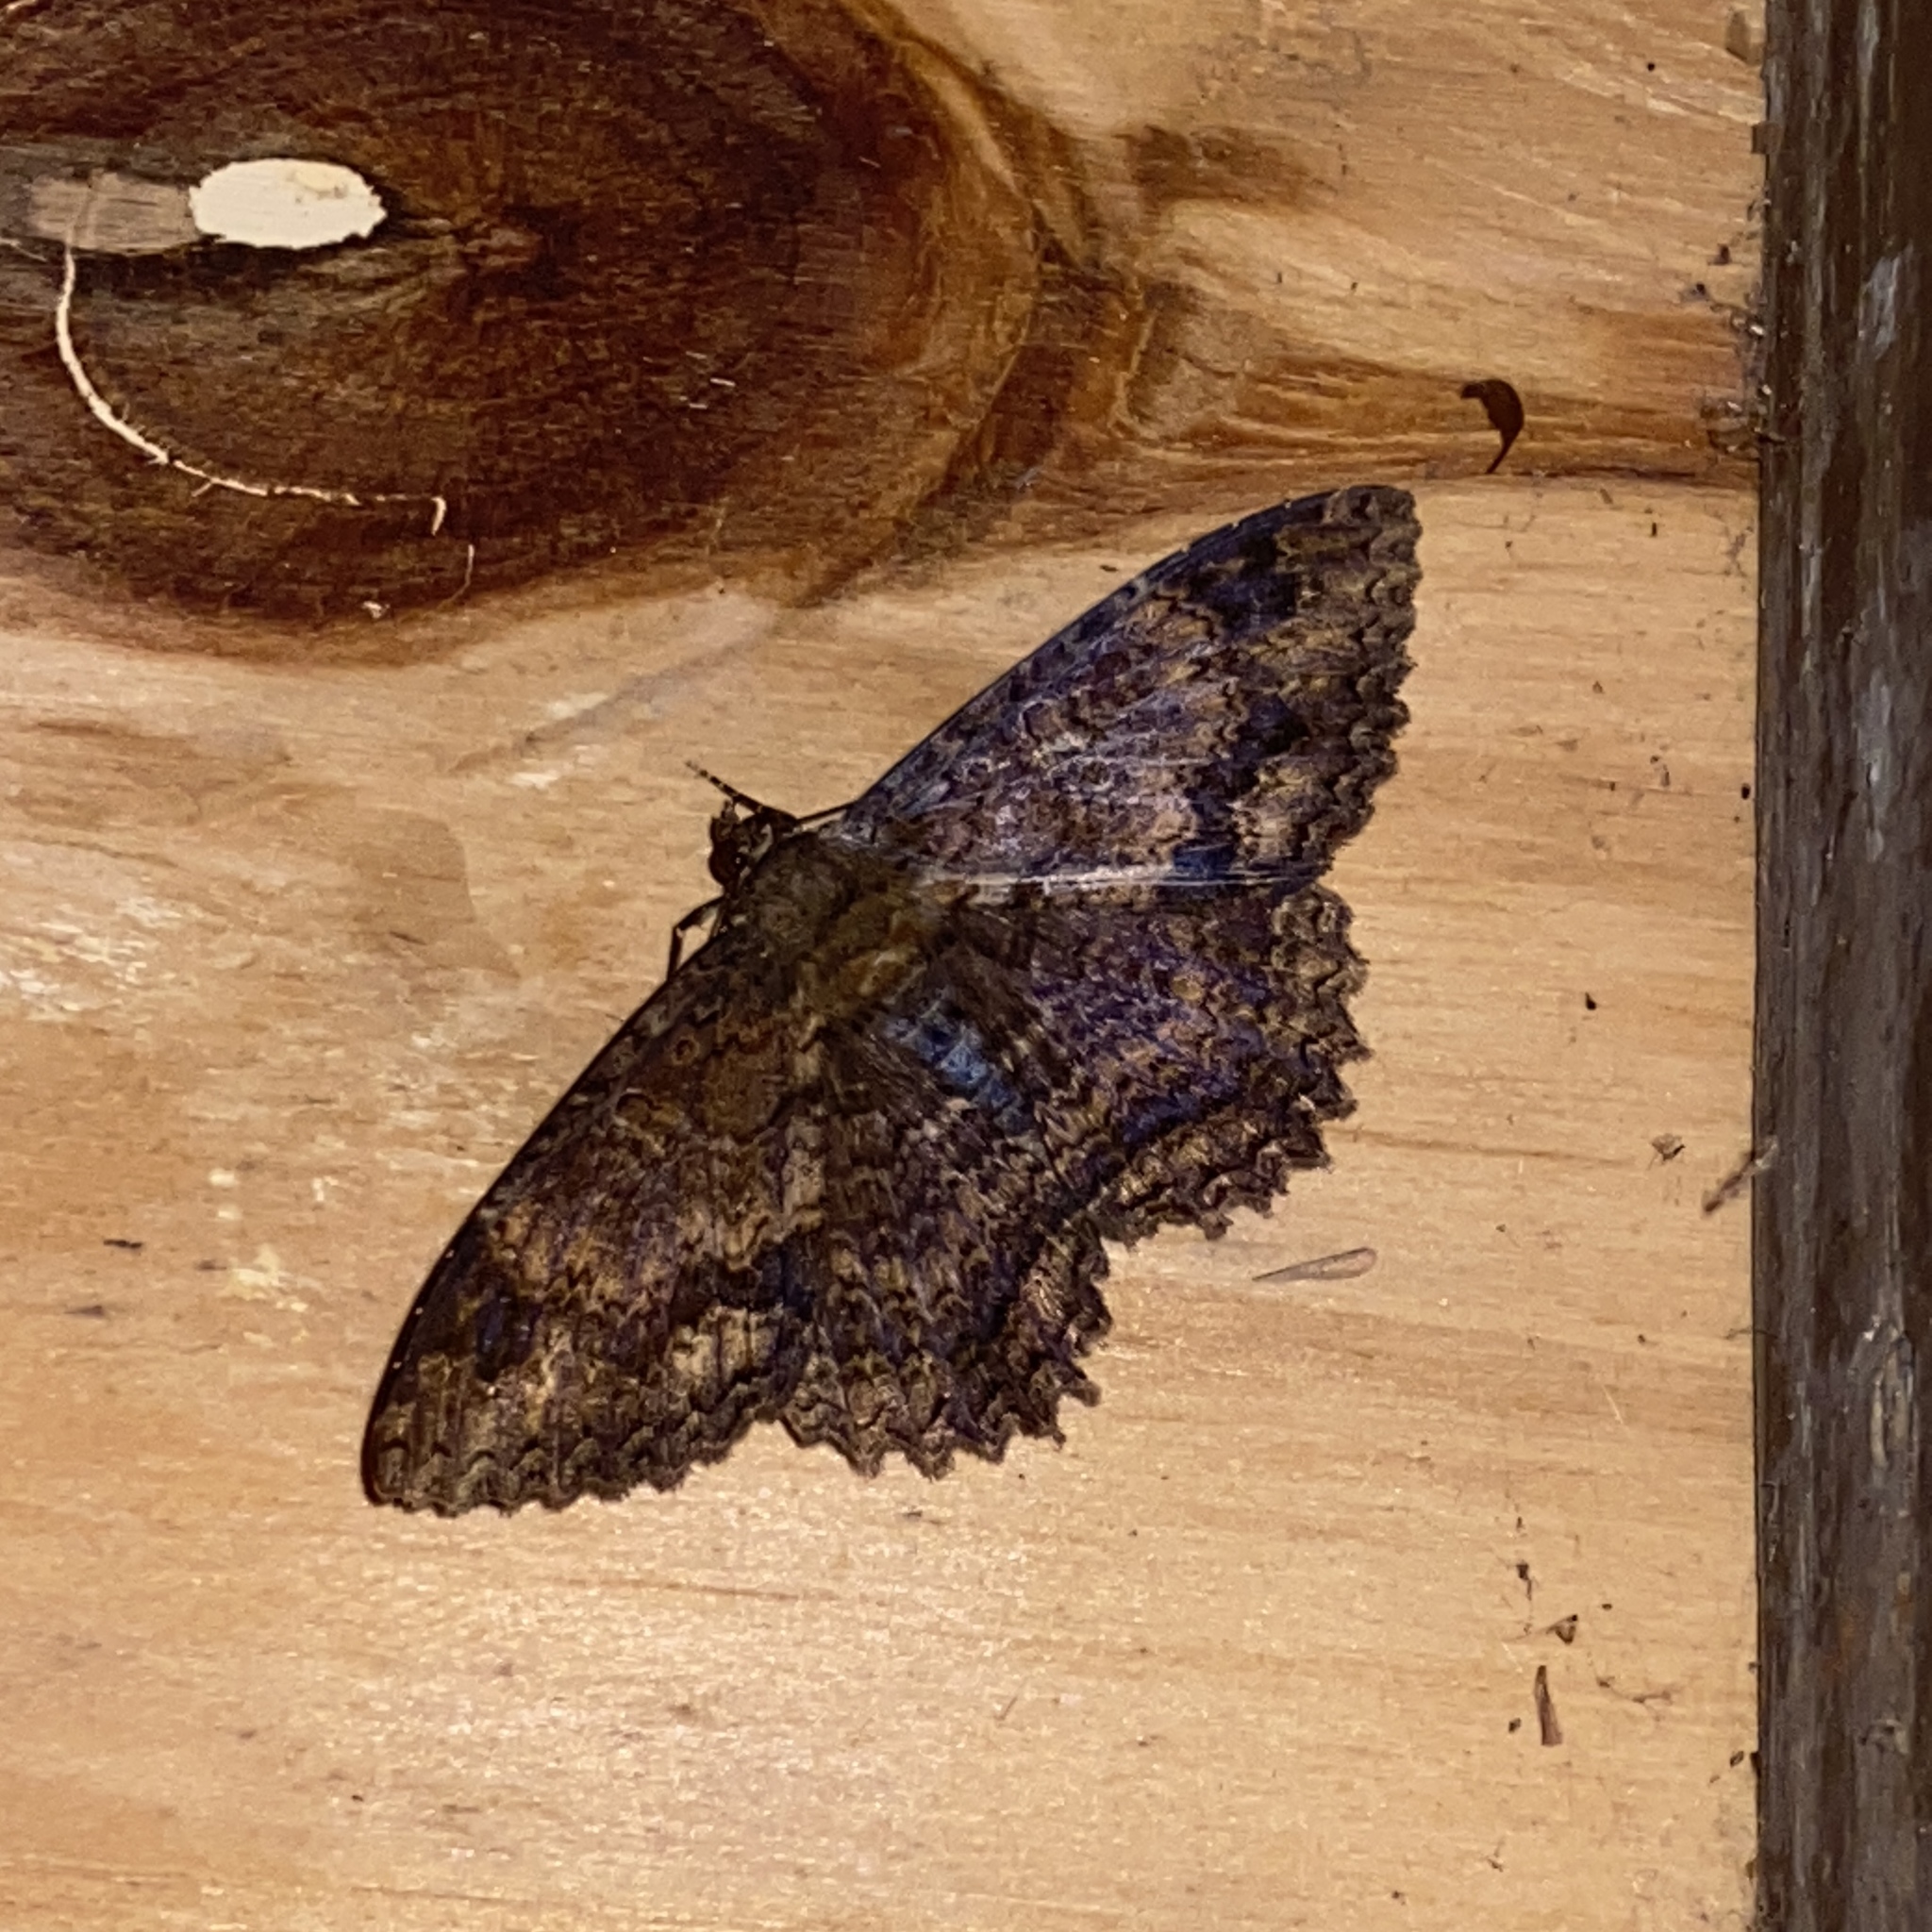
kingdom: Animalia
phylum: Arthropoda
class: Insecta
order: Lepidoptera
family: Erebidae
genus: Letis
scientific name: Letis doliaris
